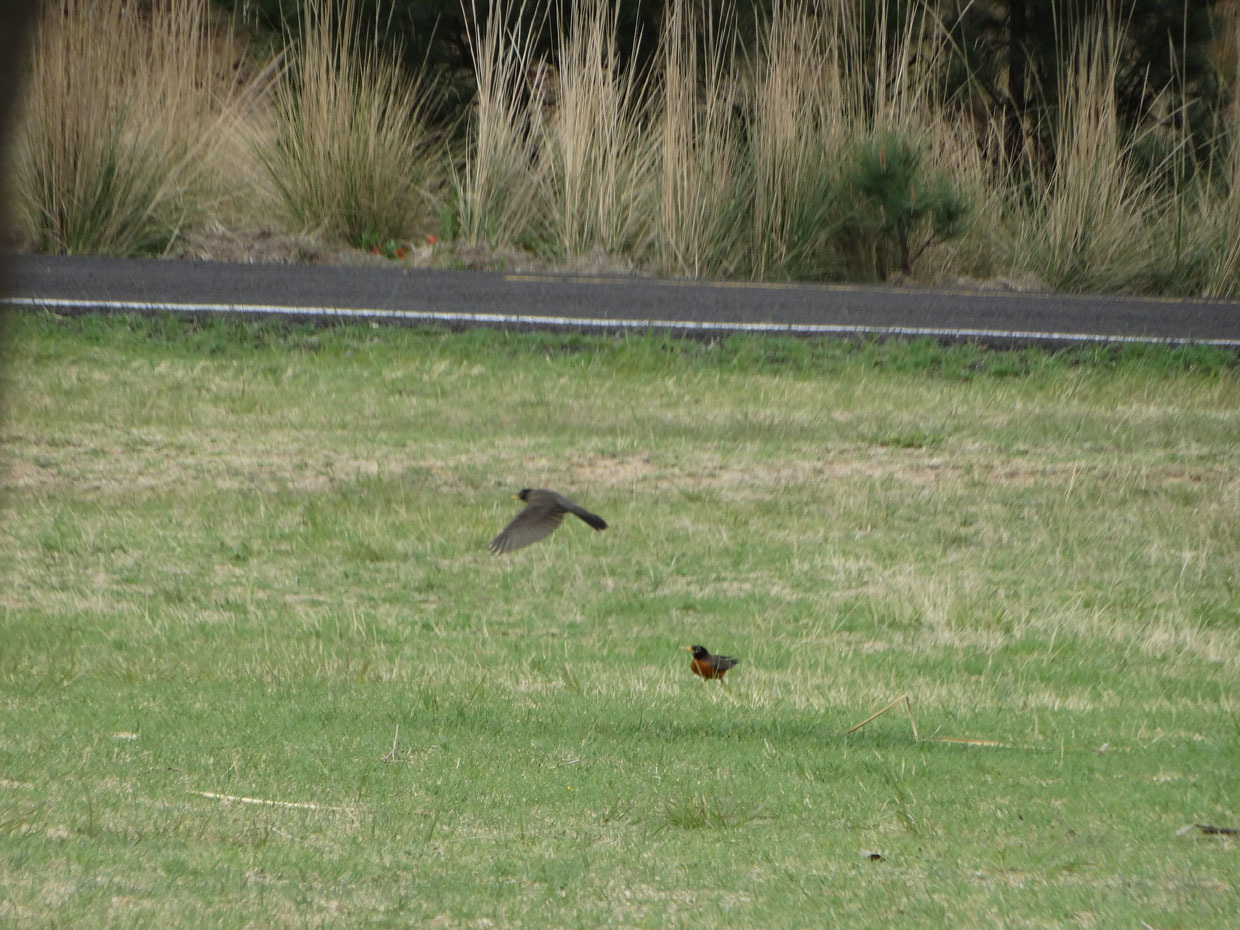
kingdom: Animalia
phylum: Chordata
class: Aves
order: Passeriformes
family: Turdidae
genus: Turdus
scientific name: Turdus migratorius
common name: American robin
